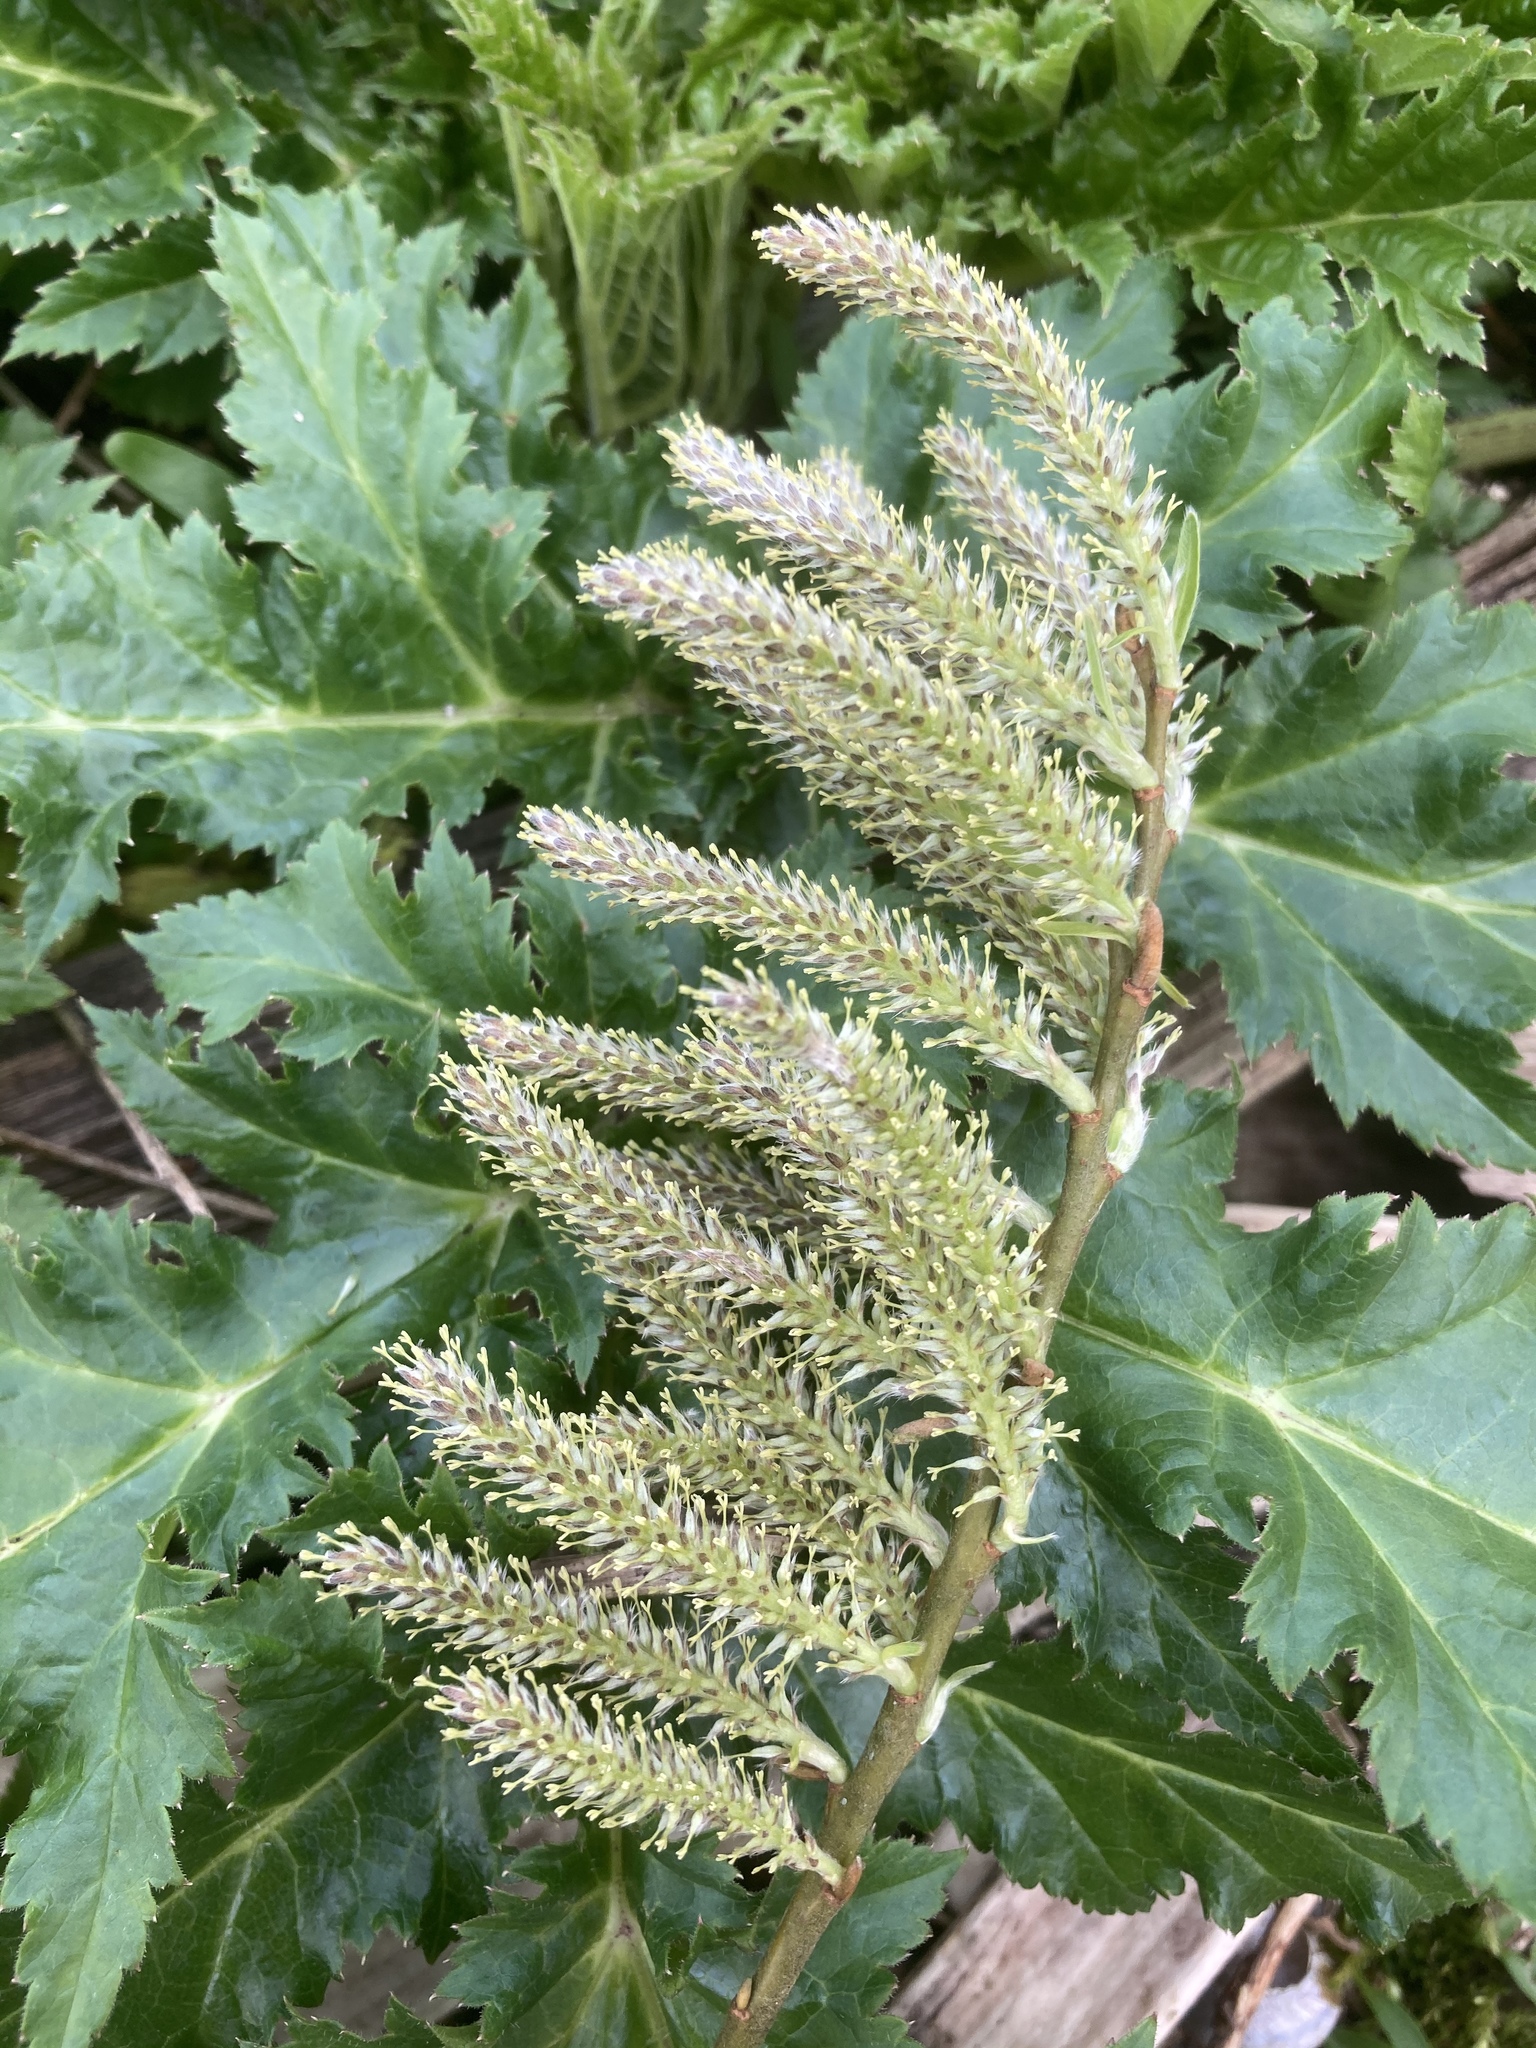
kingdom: Plantae
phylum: Tracheophyta
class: Magnoliopsida
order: Apiales
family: Apiaceae
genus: Heracleum
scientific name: Heracleum mantegazzianum
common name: Giant hogweed
